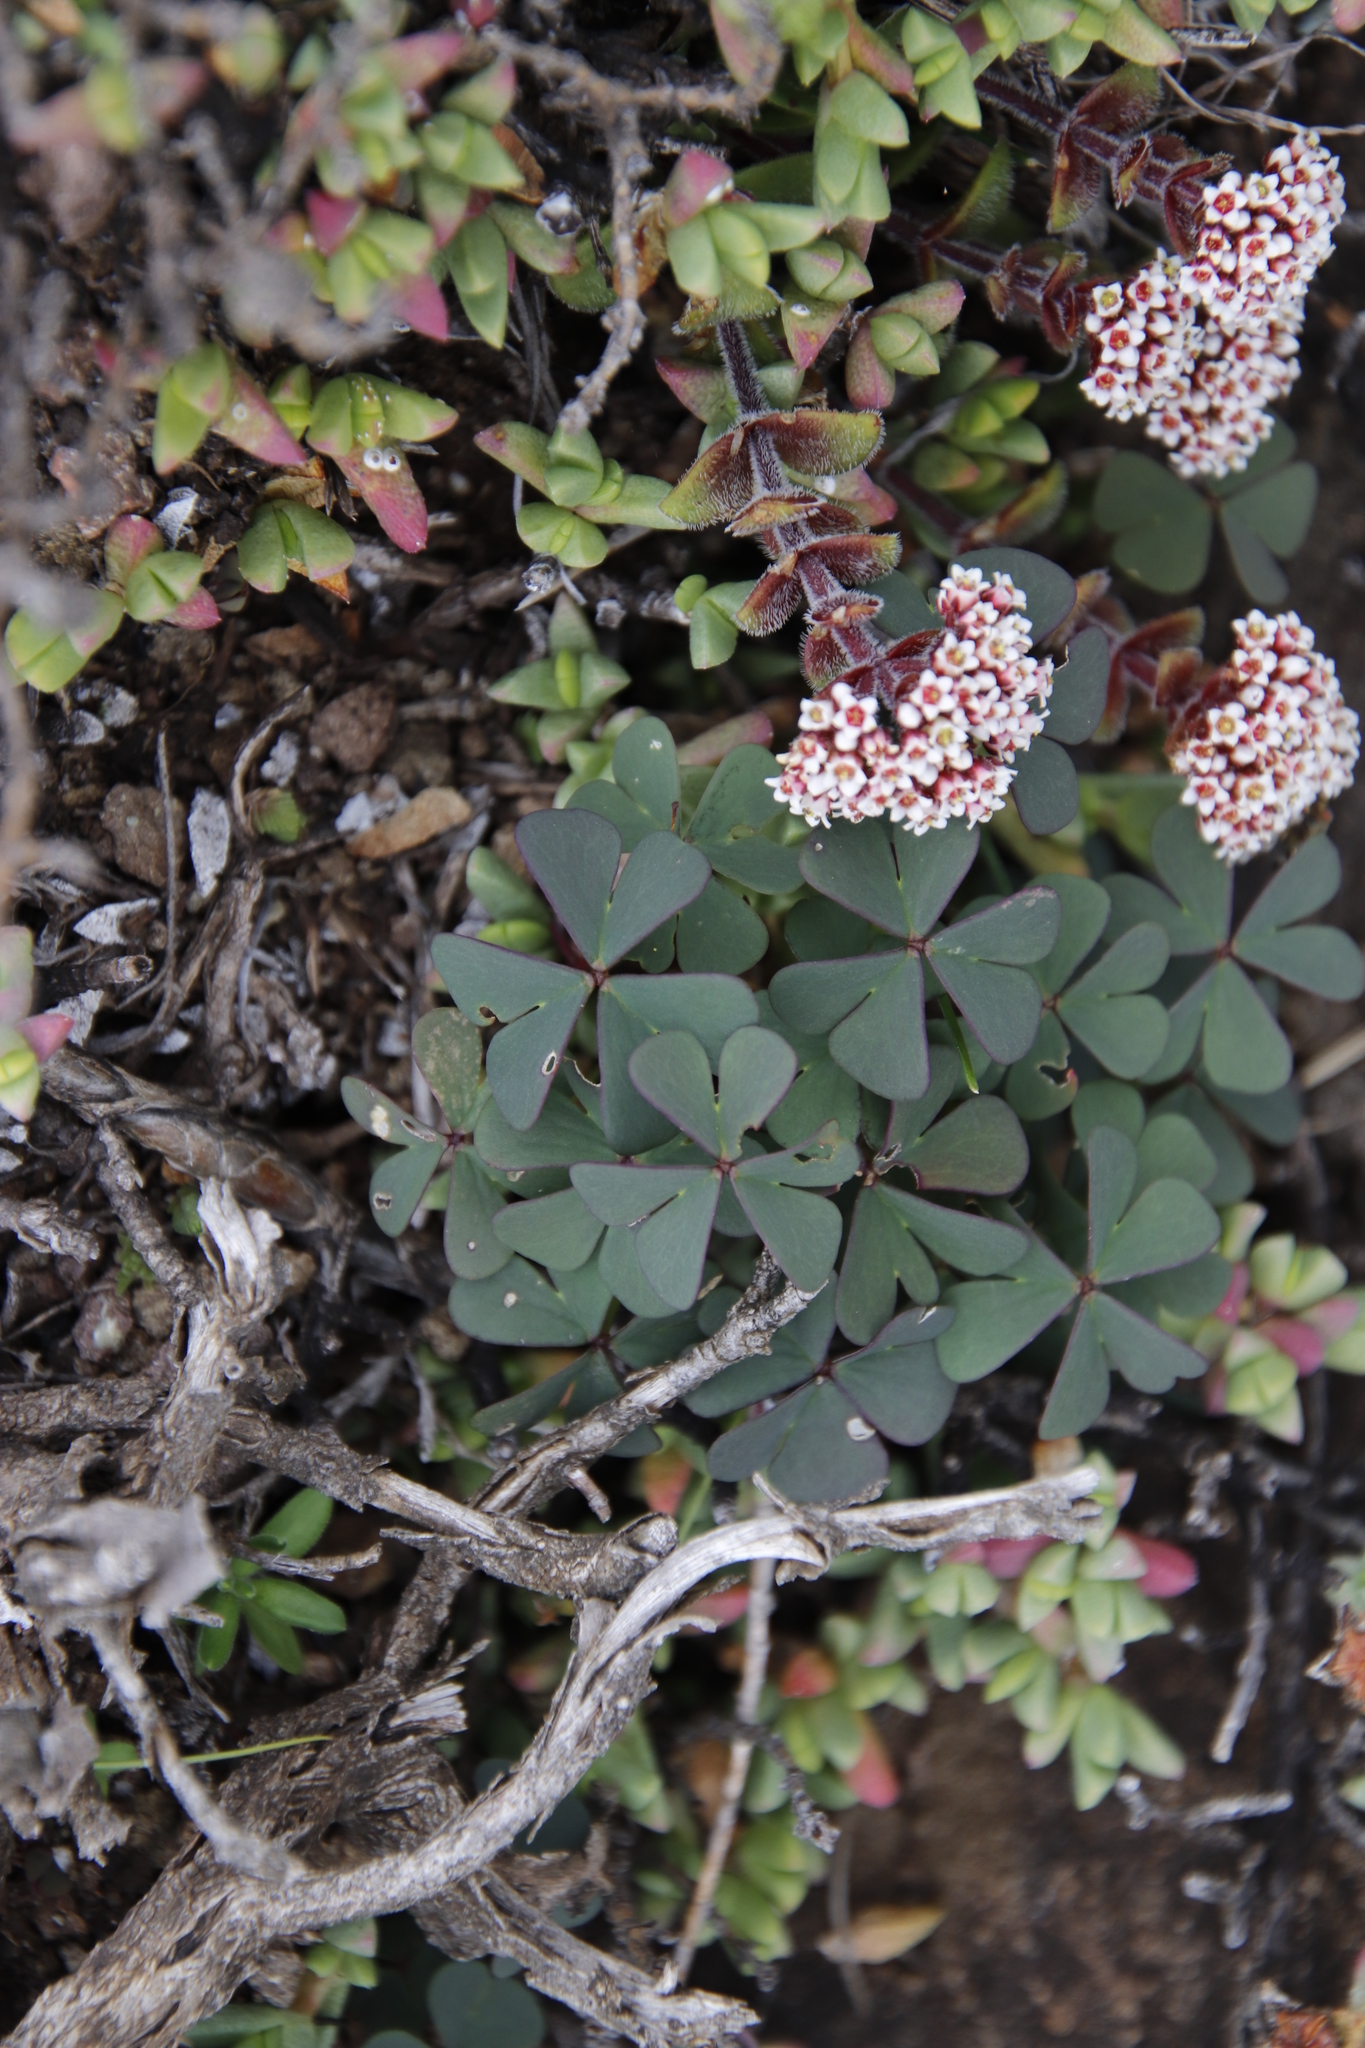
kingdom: Plantae
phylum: Tracheophyta
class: Magnoliopsida
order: Oxalidales
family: Oxalidaceae
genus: Oxalis
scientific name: Oxalis smithiana
